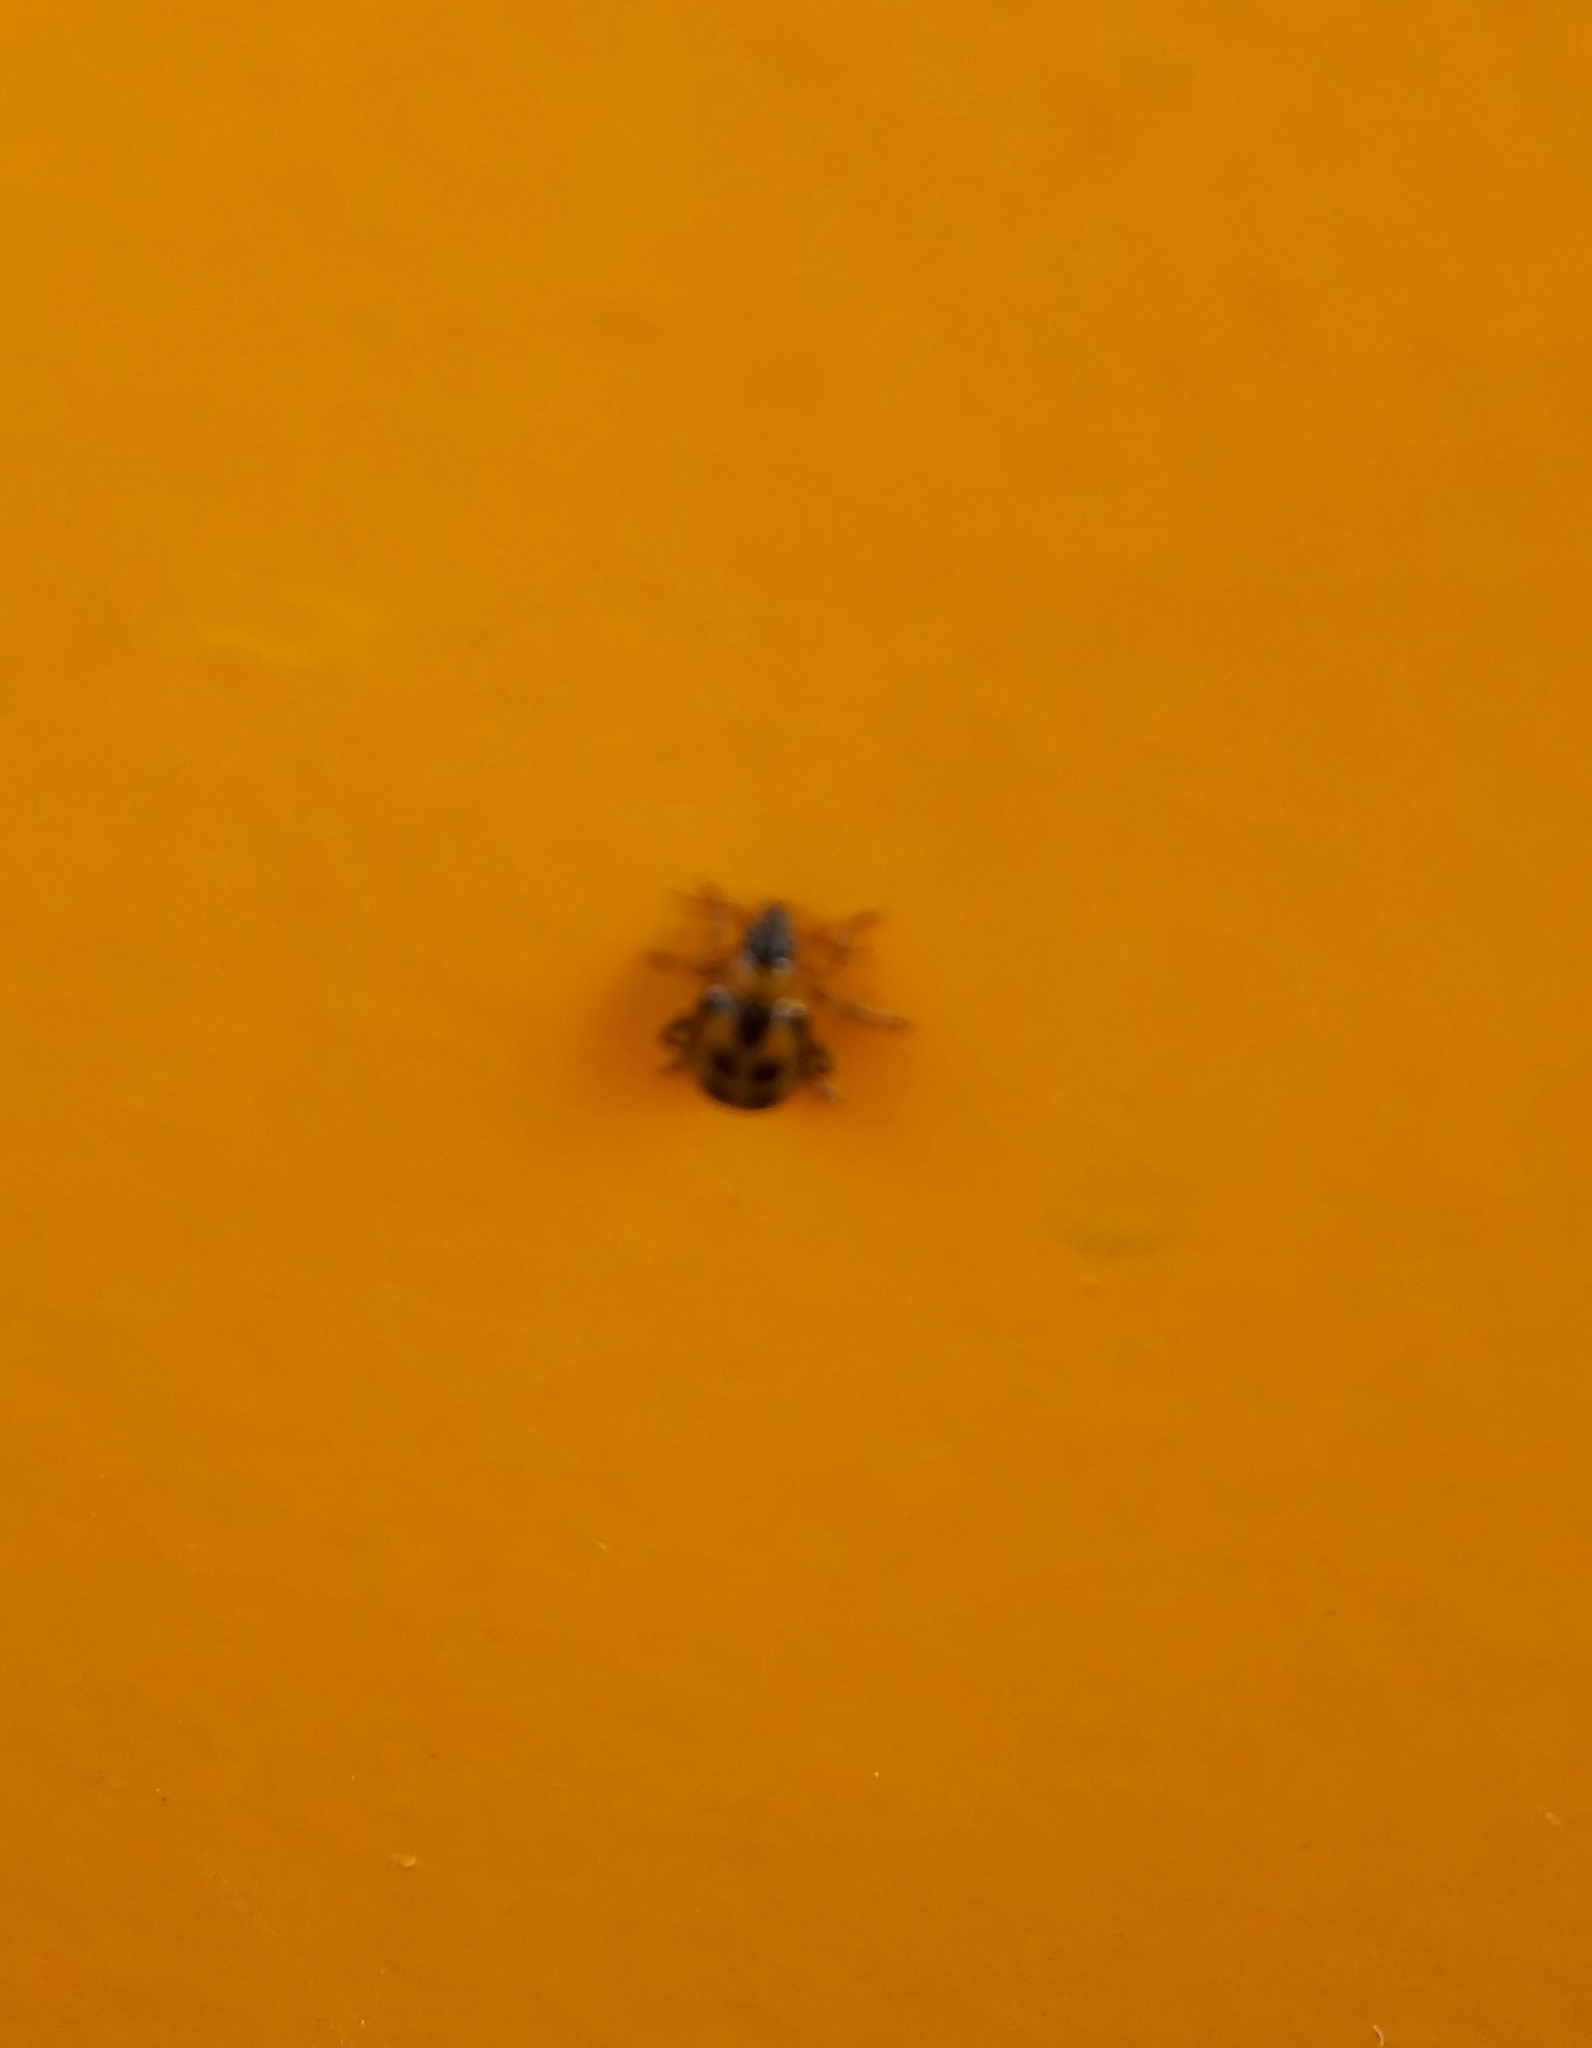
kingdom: Animalia
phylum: Arthropoda
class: Insecta
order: Coleoptera
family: Chrysomelidae
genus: Cerotoma
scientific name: Cerotoma trifurcata
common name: Bean leaf beetle
